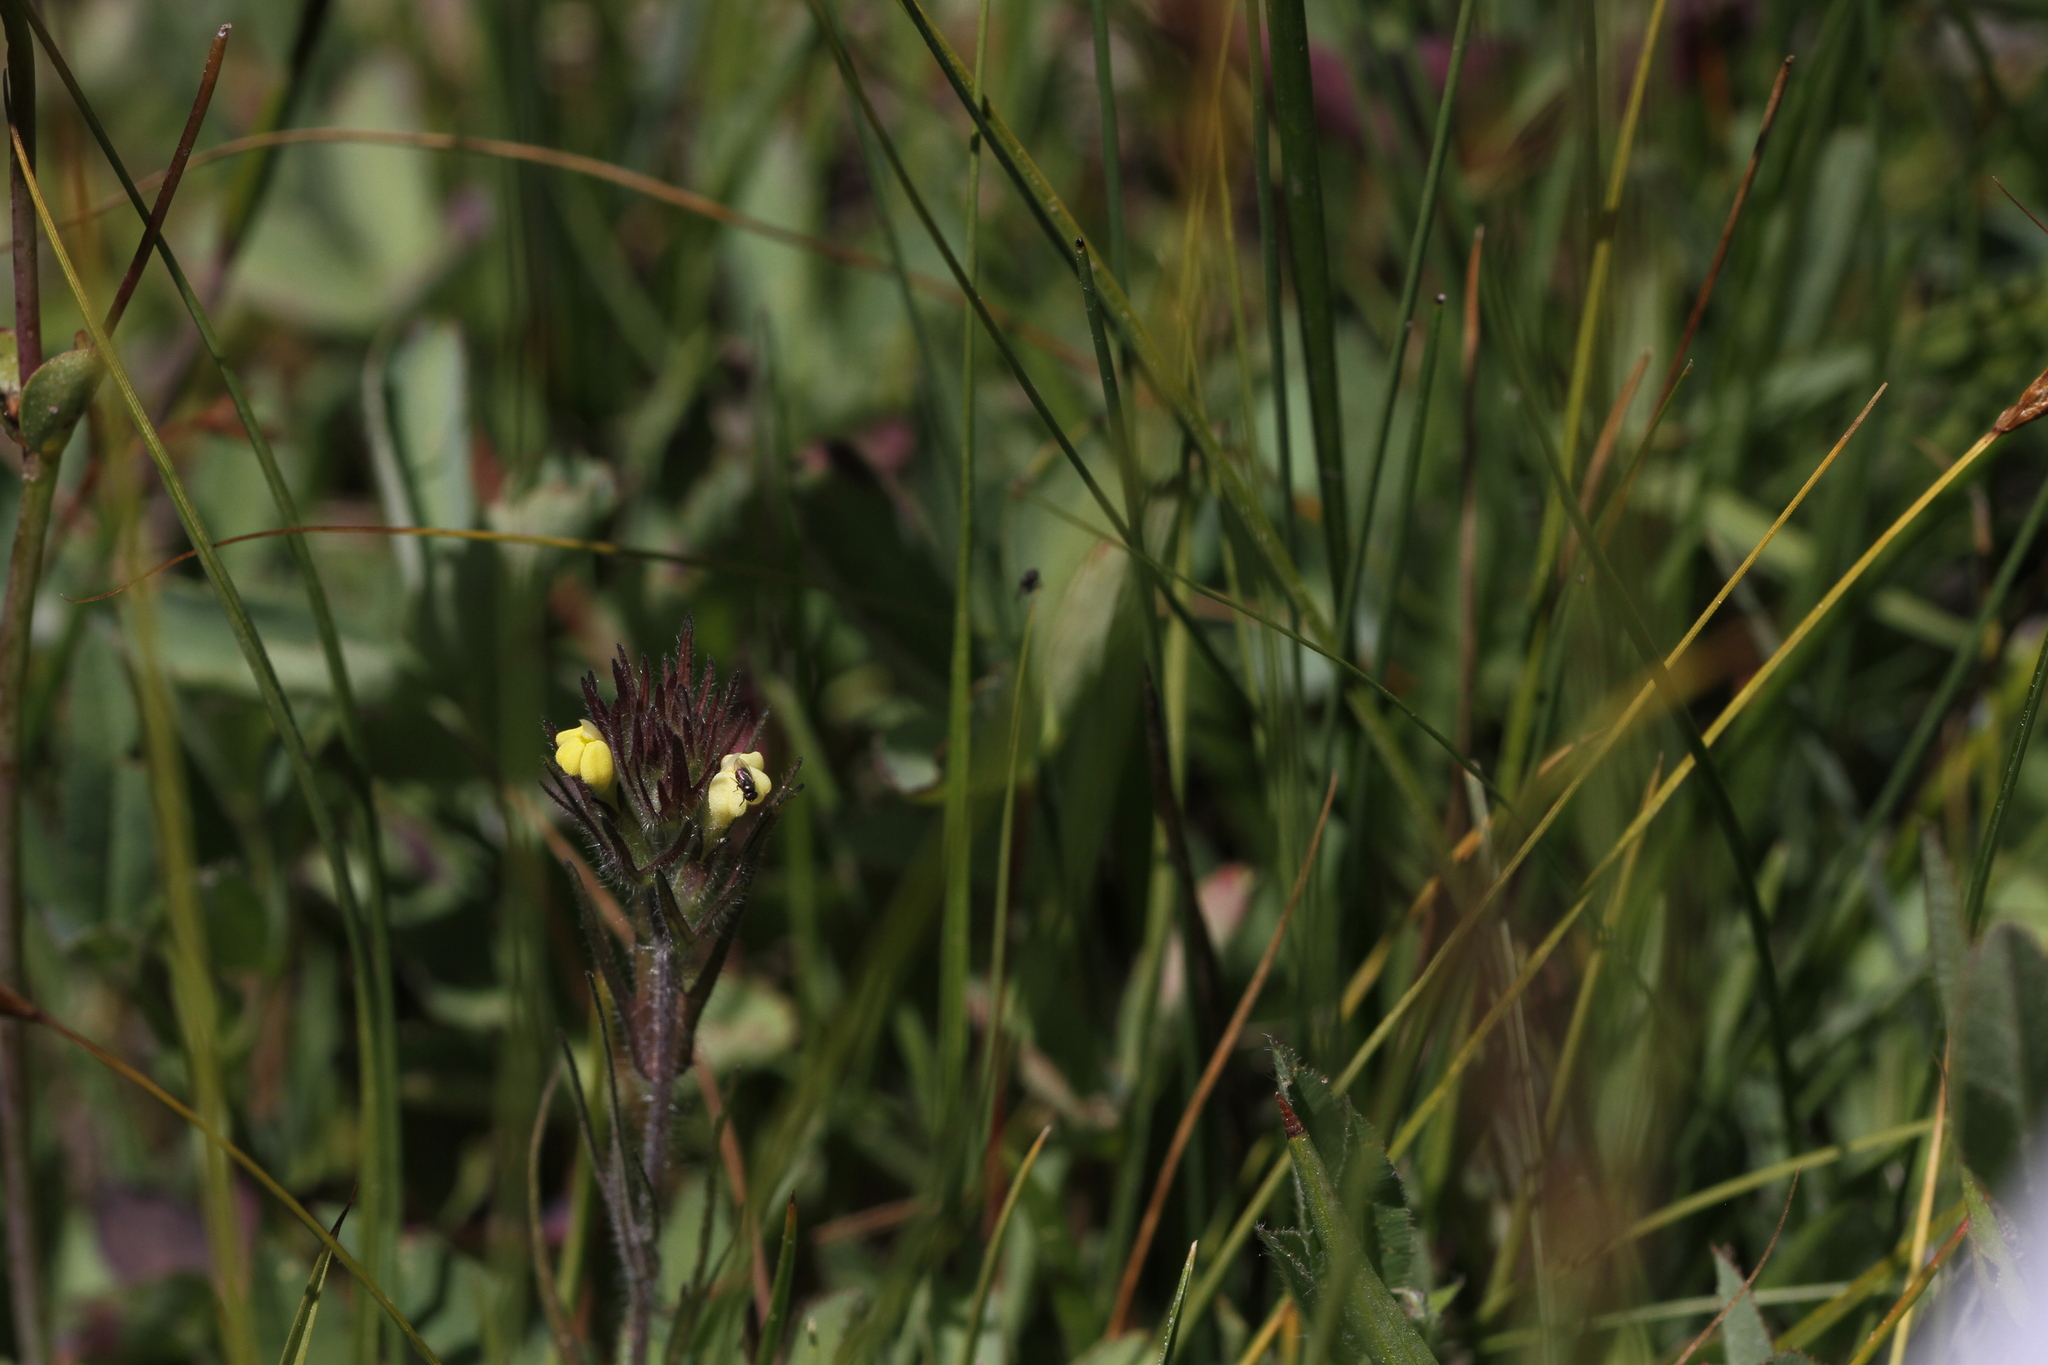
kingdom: Plantae
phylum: Tracheophyta
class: Magnoliopsida
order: Lamiales
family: Orobanchaceae
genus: Castilleja
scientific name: Castilleja tenuis
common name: Hairy indian paintbrush
